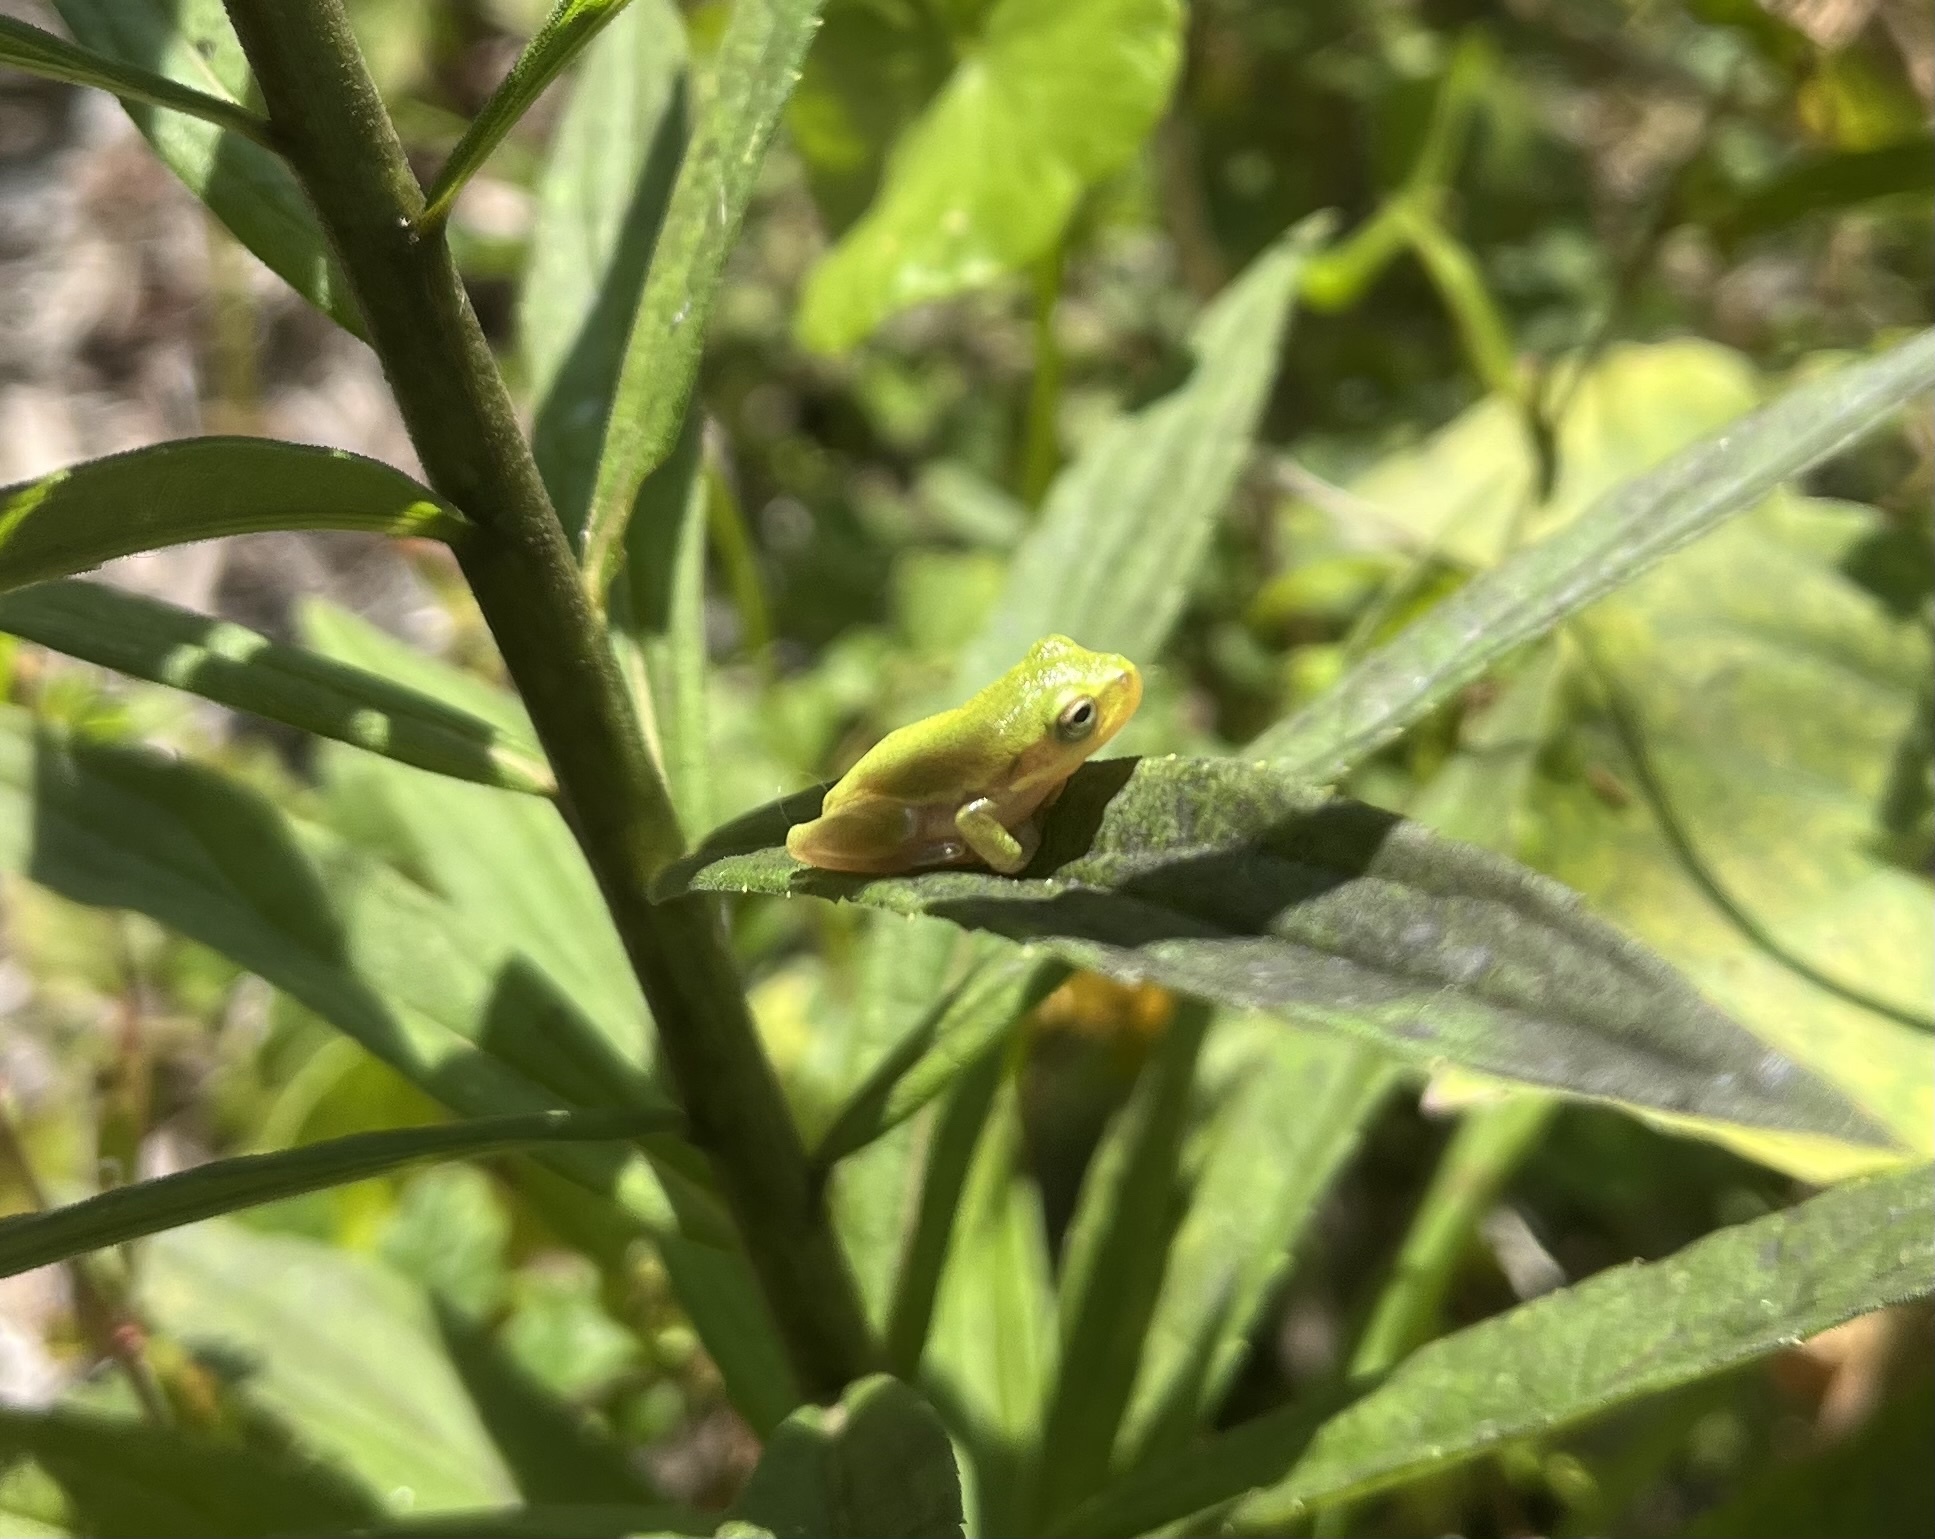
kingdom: Animalia
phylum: Chordata
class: Amphibia
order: Anura
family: Hylidae
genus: Dryophytes
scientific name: Dryophytes squirellus
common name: Squirrel treefrog
